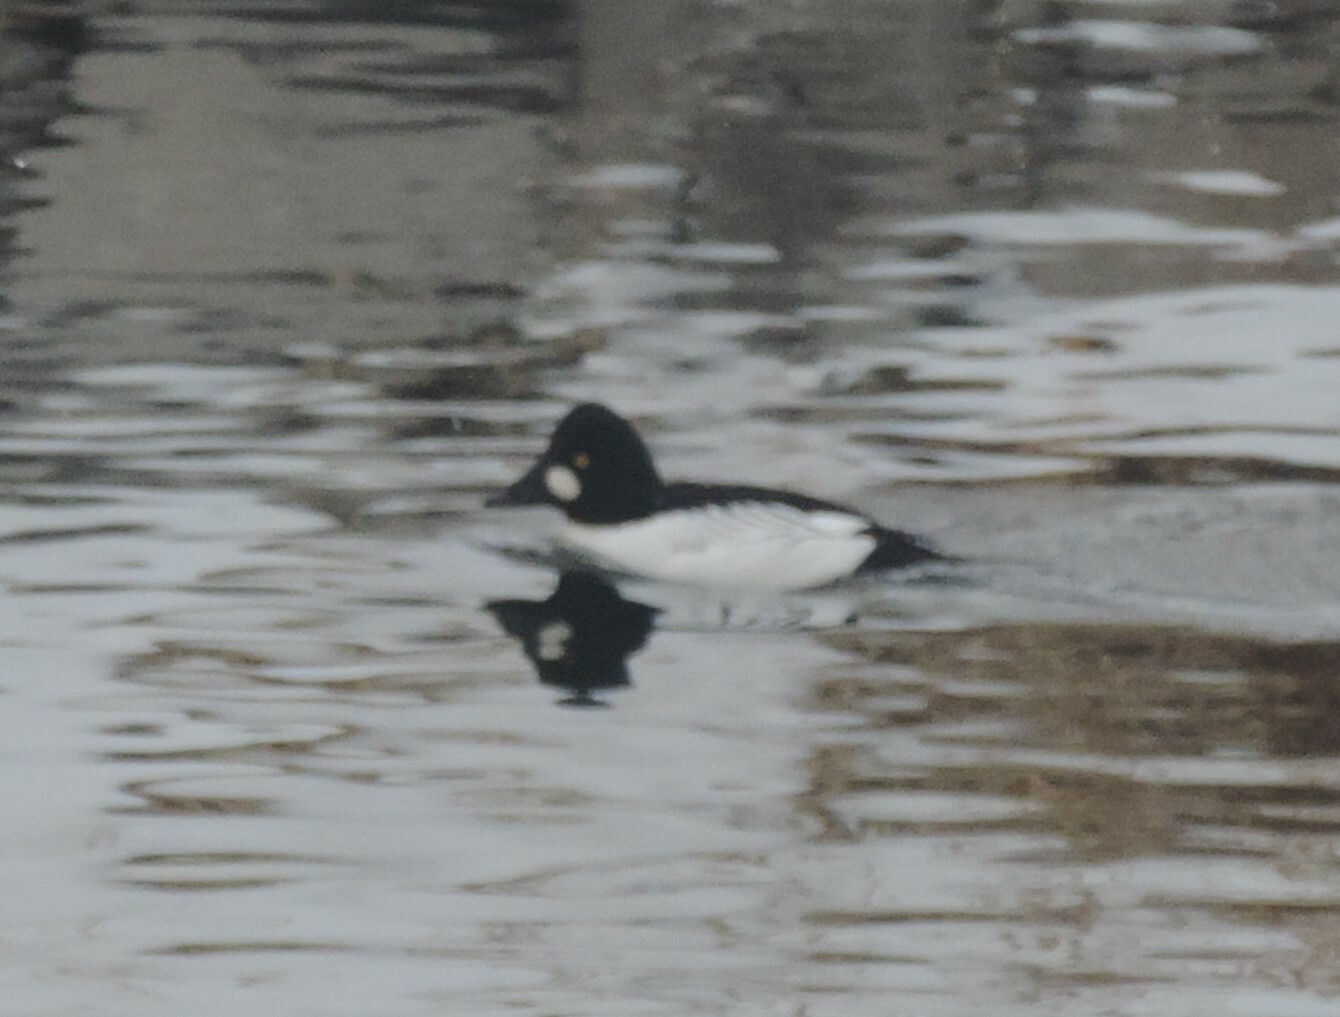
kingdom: Animalia
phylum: Chordata
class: Aves
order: Anseriformes
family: Anatidae
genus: Bucephala
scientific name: Bucephala clangula
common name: Common goldeneye
